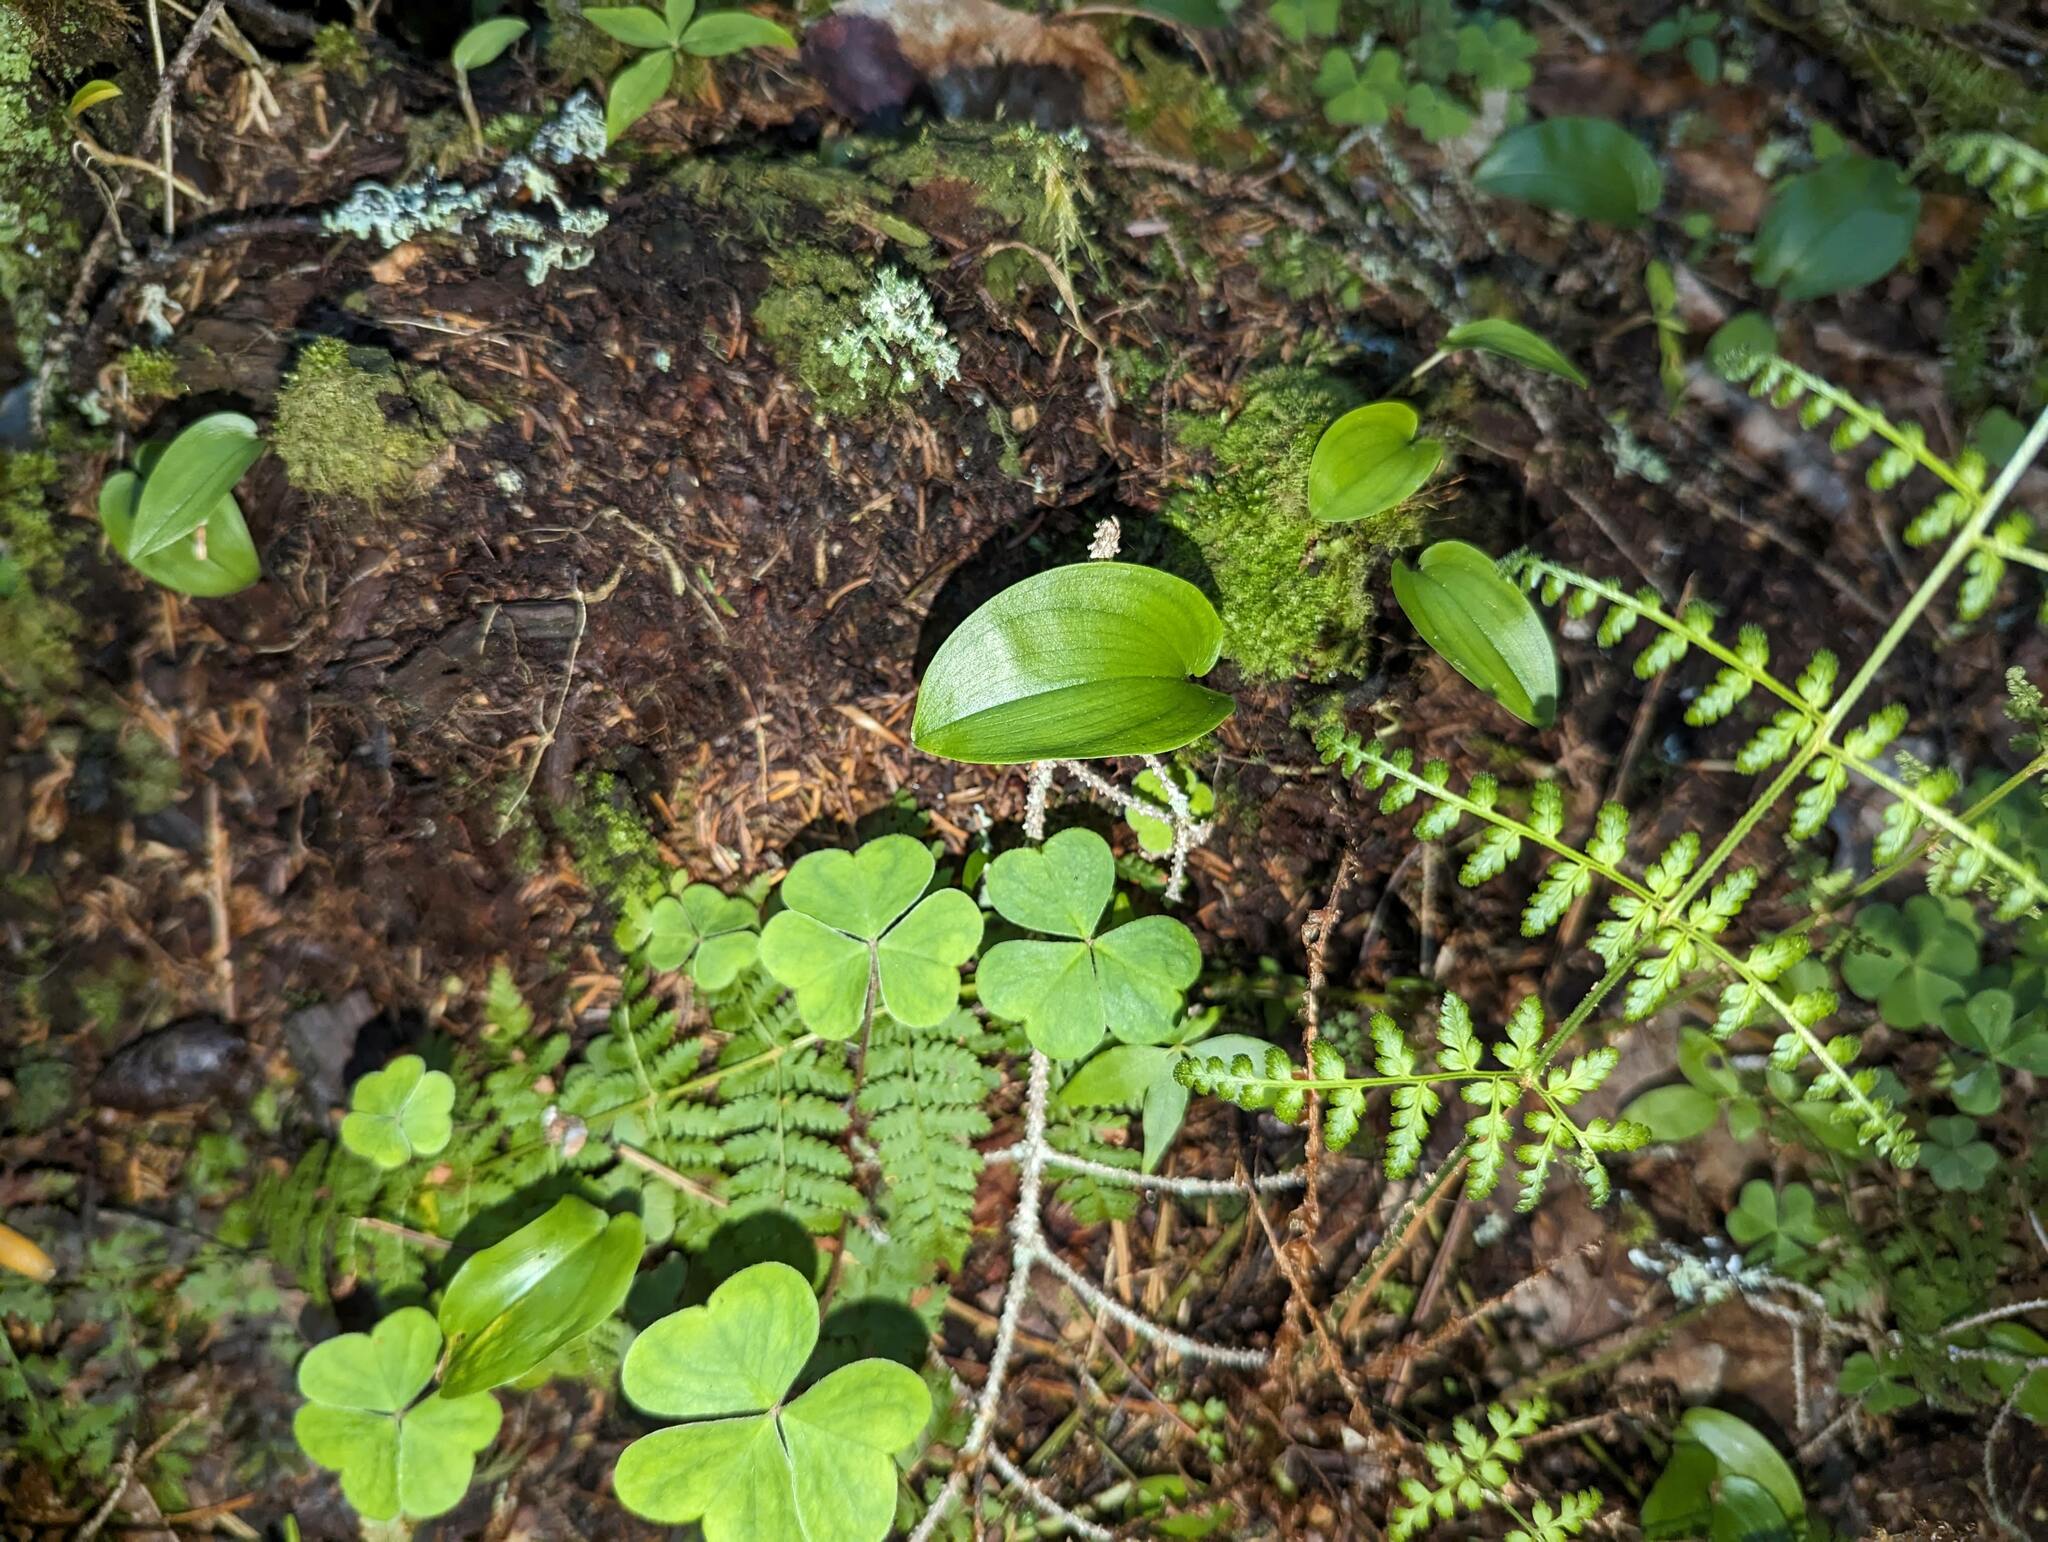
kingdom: Plantae
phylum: Tracheophyta
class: Liliopsida
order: Asparagales
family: Asparagaceae
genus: Maianthemum
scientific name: Maianthemum canadense
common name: False lily-of-the-valley
